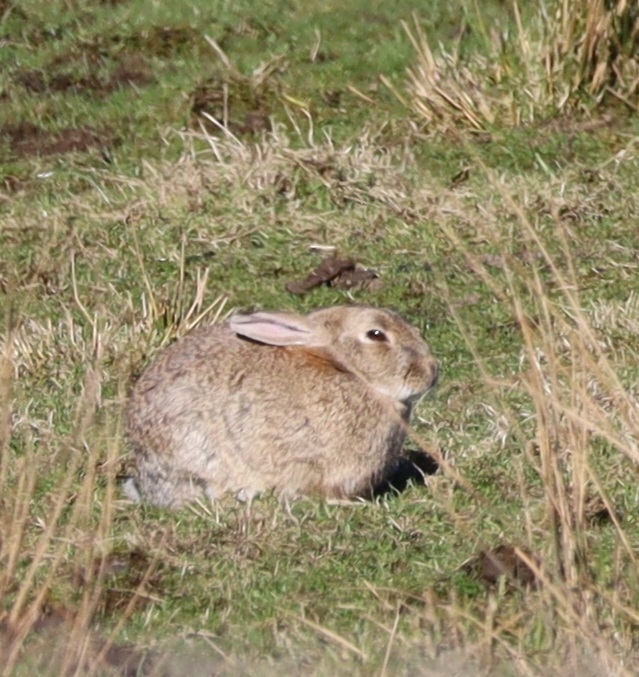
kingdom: Animalia
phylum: Chordata
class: Mammalia
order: Lagomorpha
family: Leporidae
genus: Oryctolagus
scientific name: Oryctolagus cuniculus
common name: European rabbit
